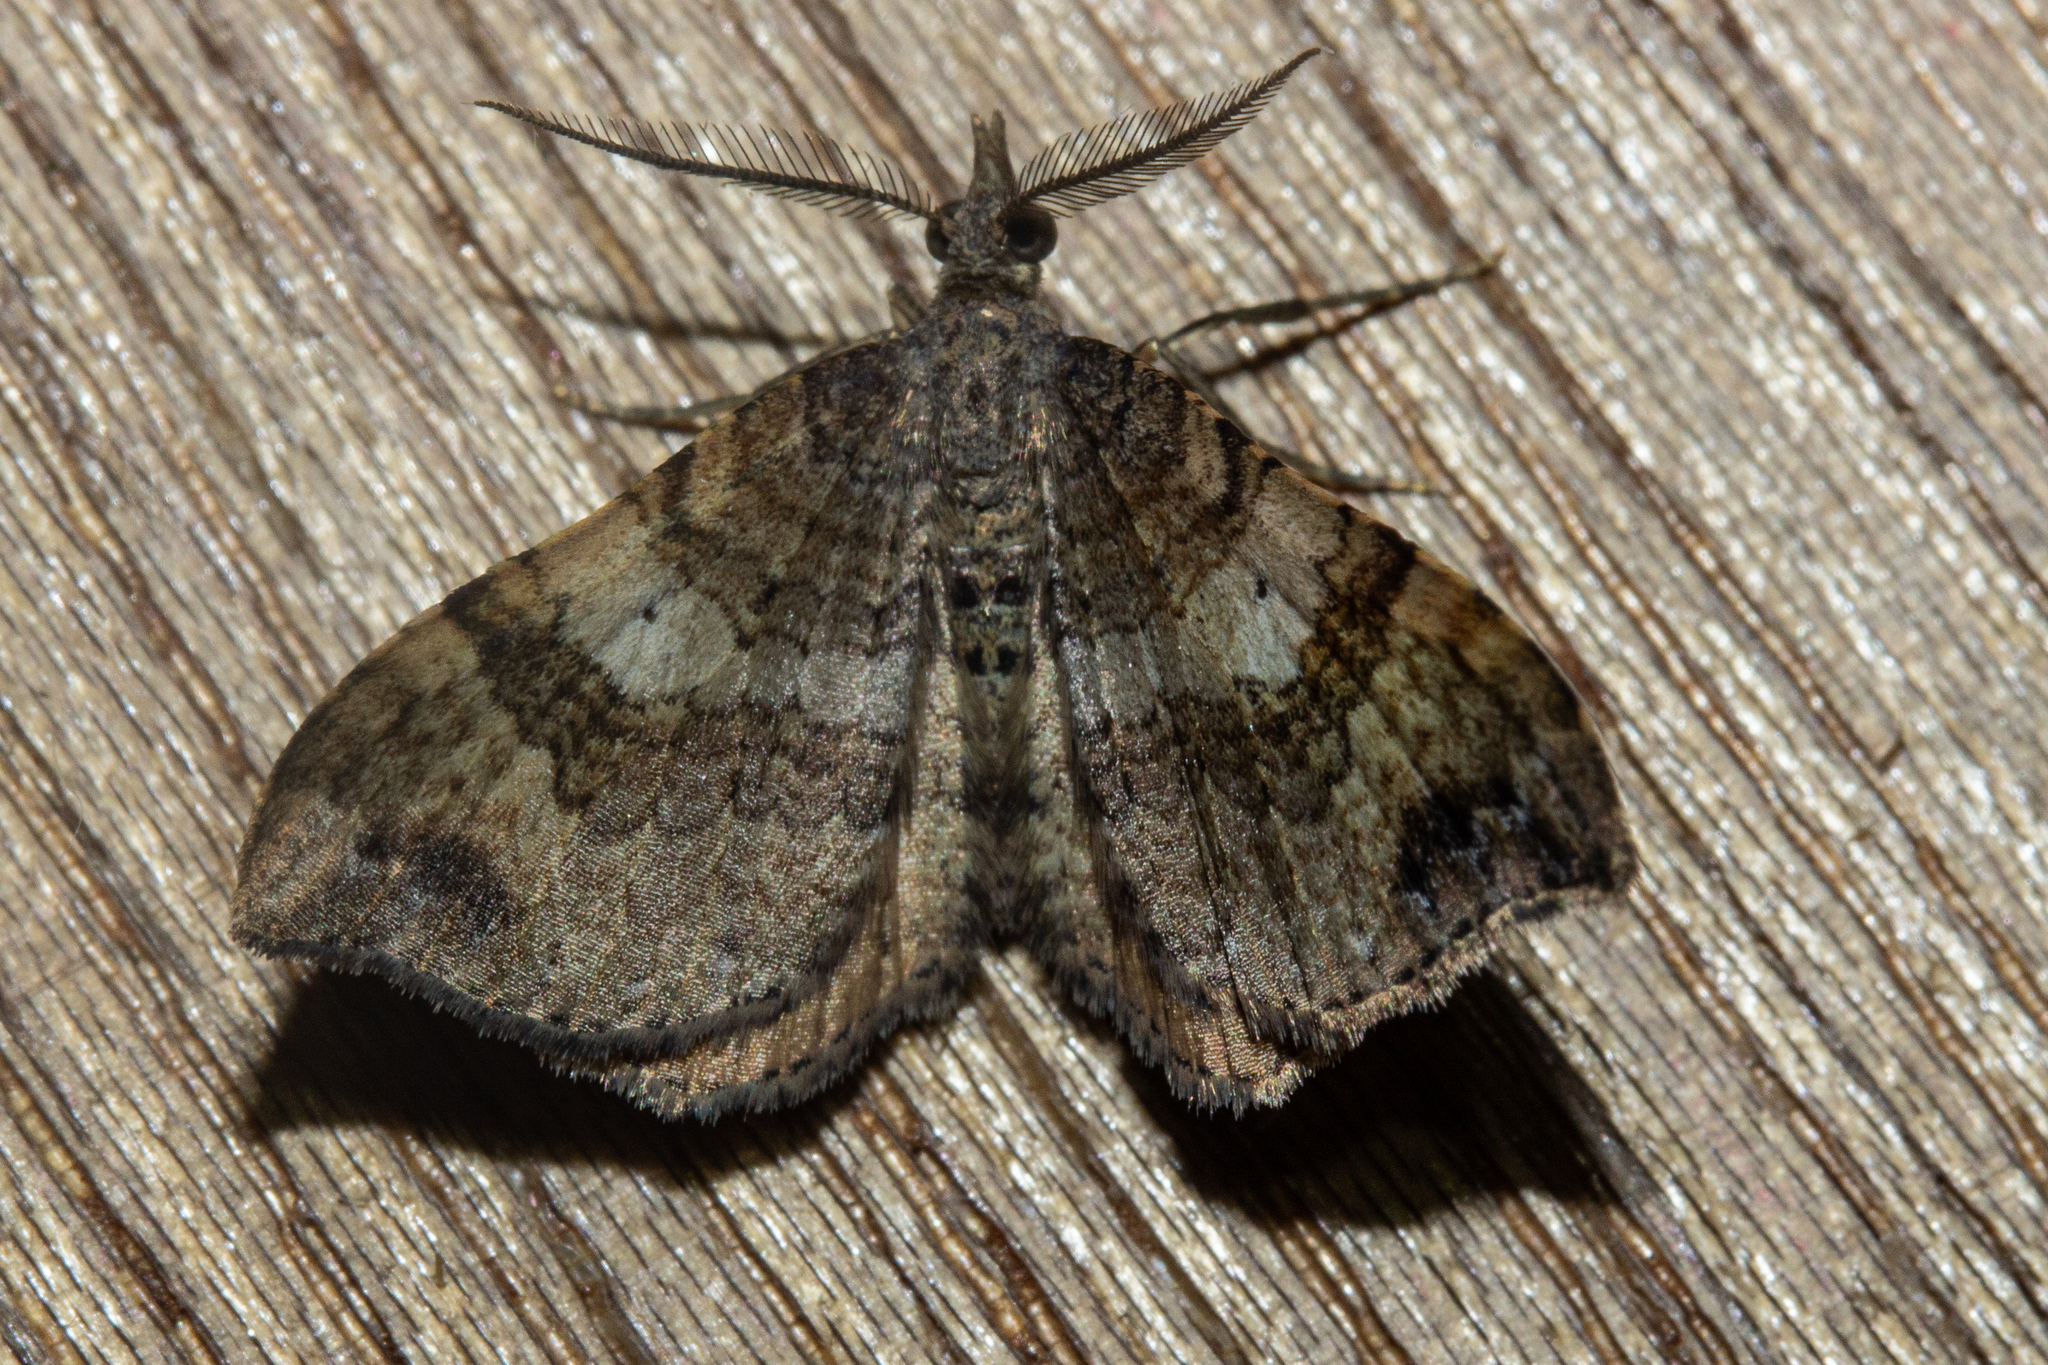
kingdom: Animalia
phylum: Arthropoda
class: Insecta
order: Lepidoptera
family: Geometridae
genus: Homodotis
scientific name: Homodotis megaspilata
